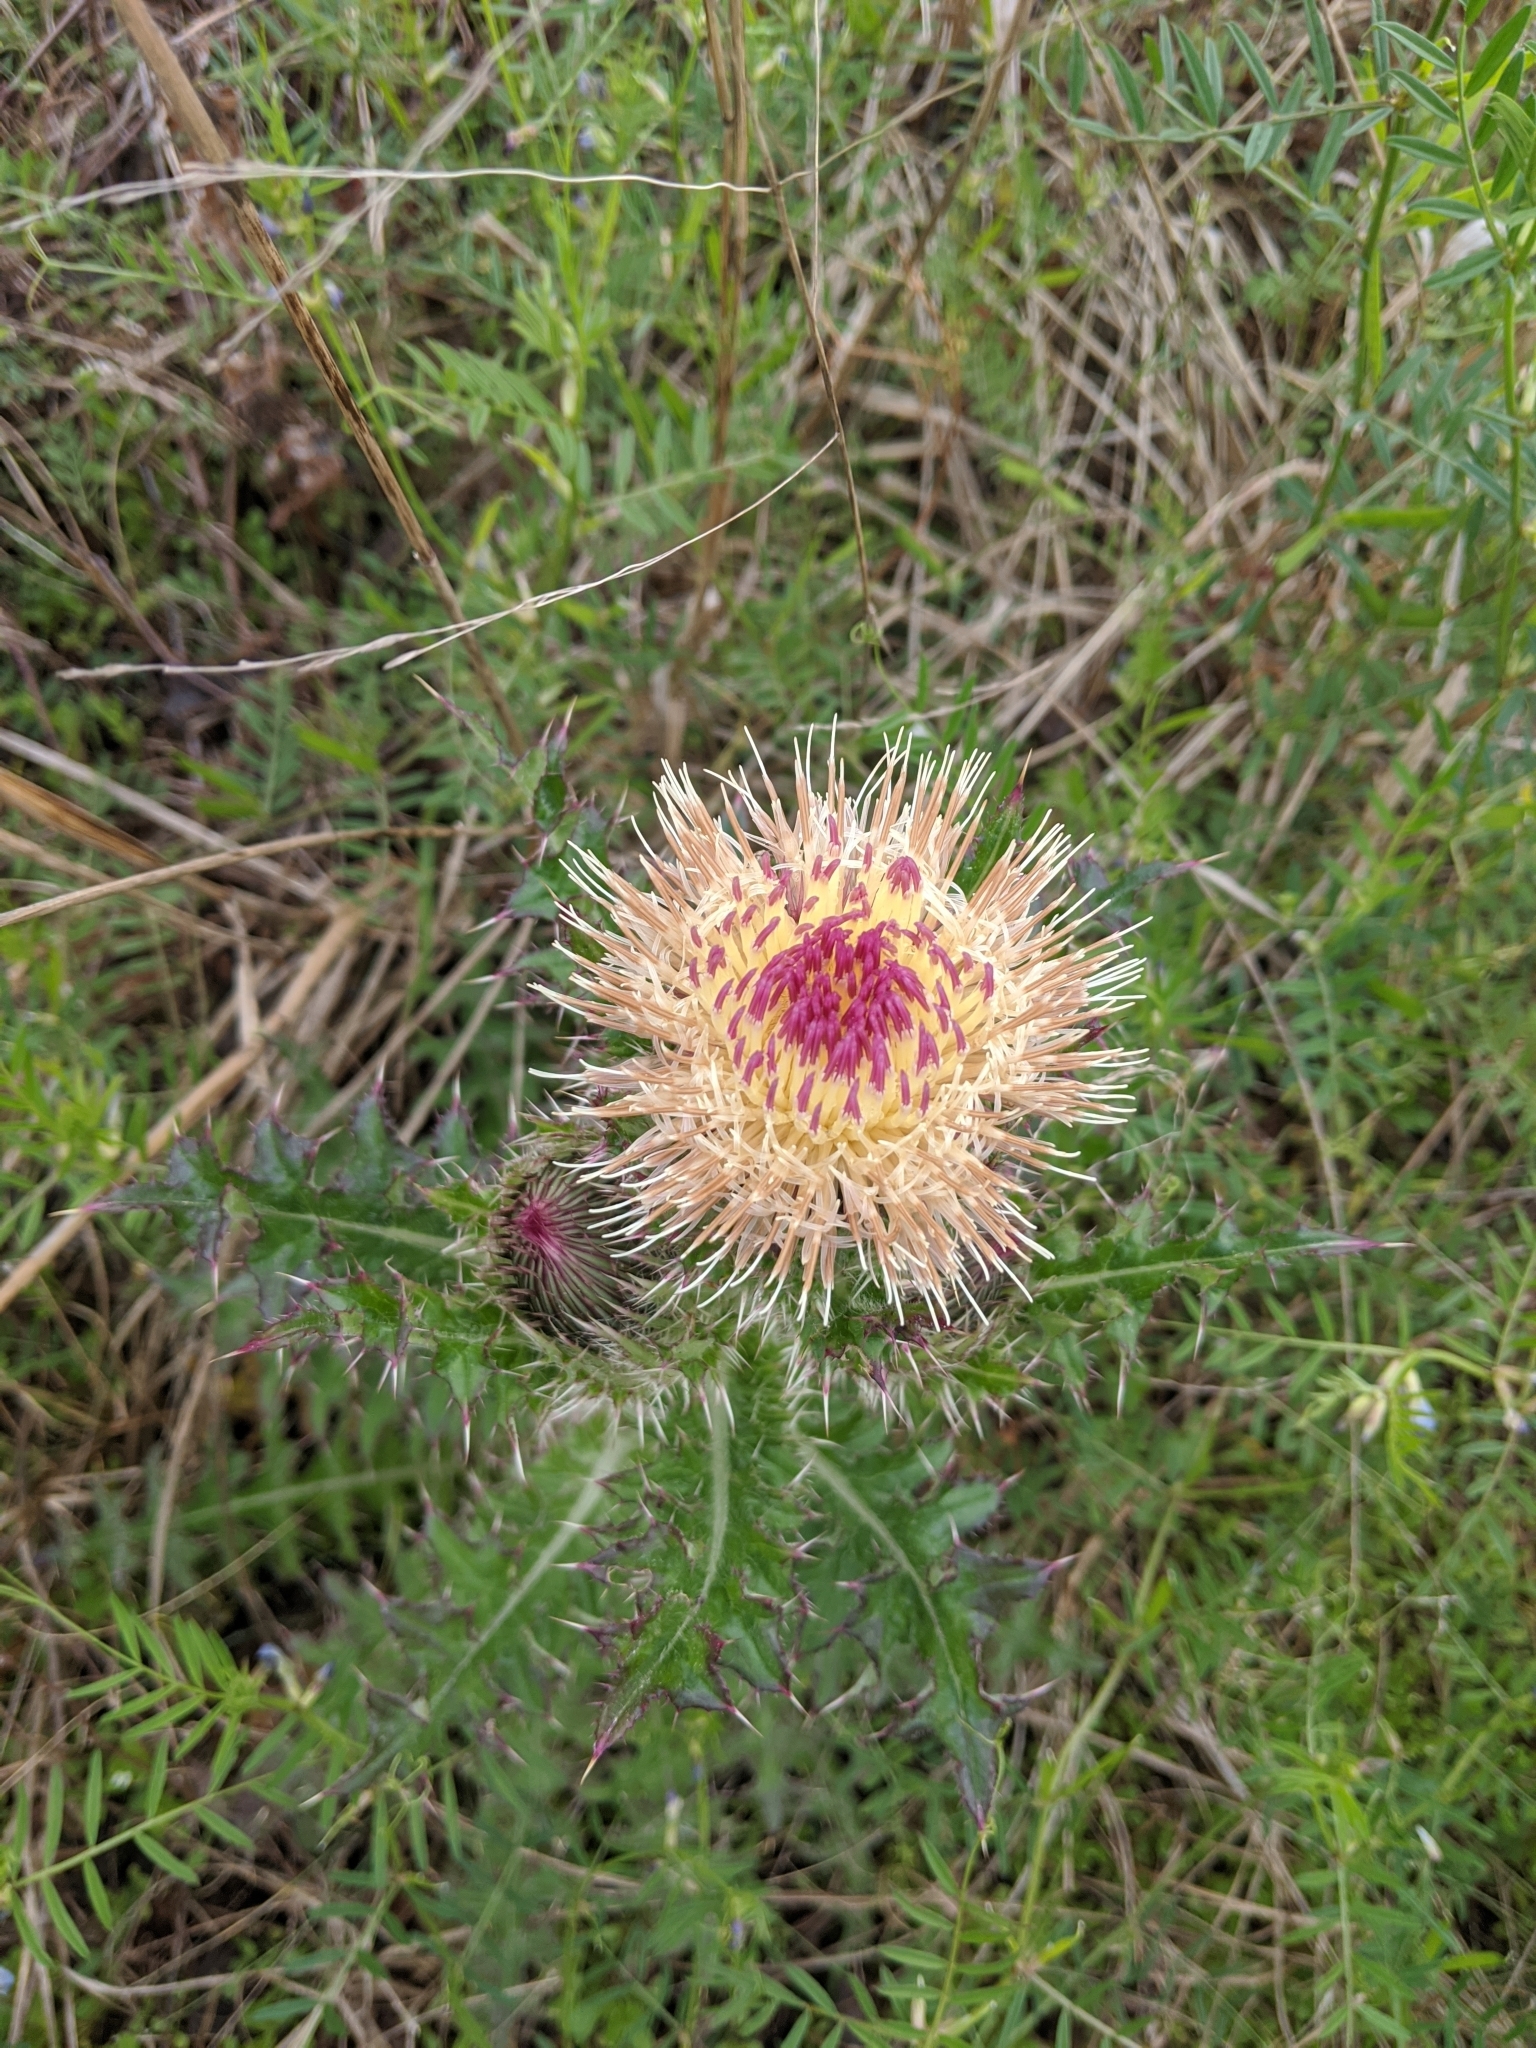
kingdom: Plantae
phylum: Tracheophyta
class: Magnoliopsida
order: Asterales
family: Asteraceae
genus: Cirsium
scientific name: Cirsium horridulum
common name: Bristly thistle
